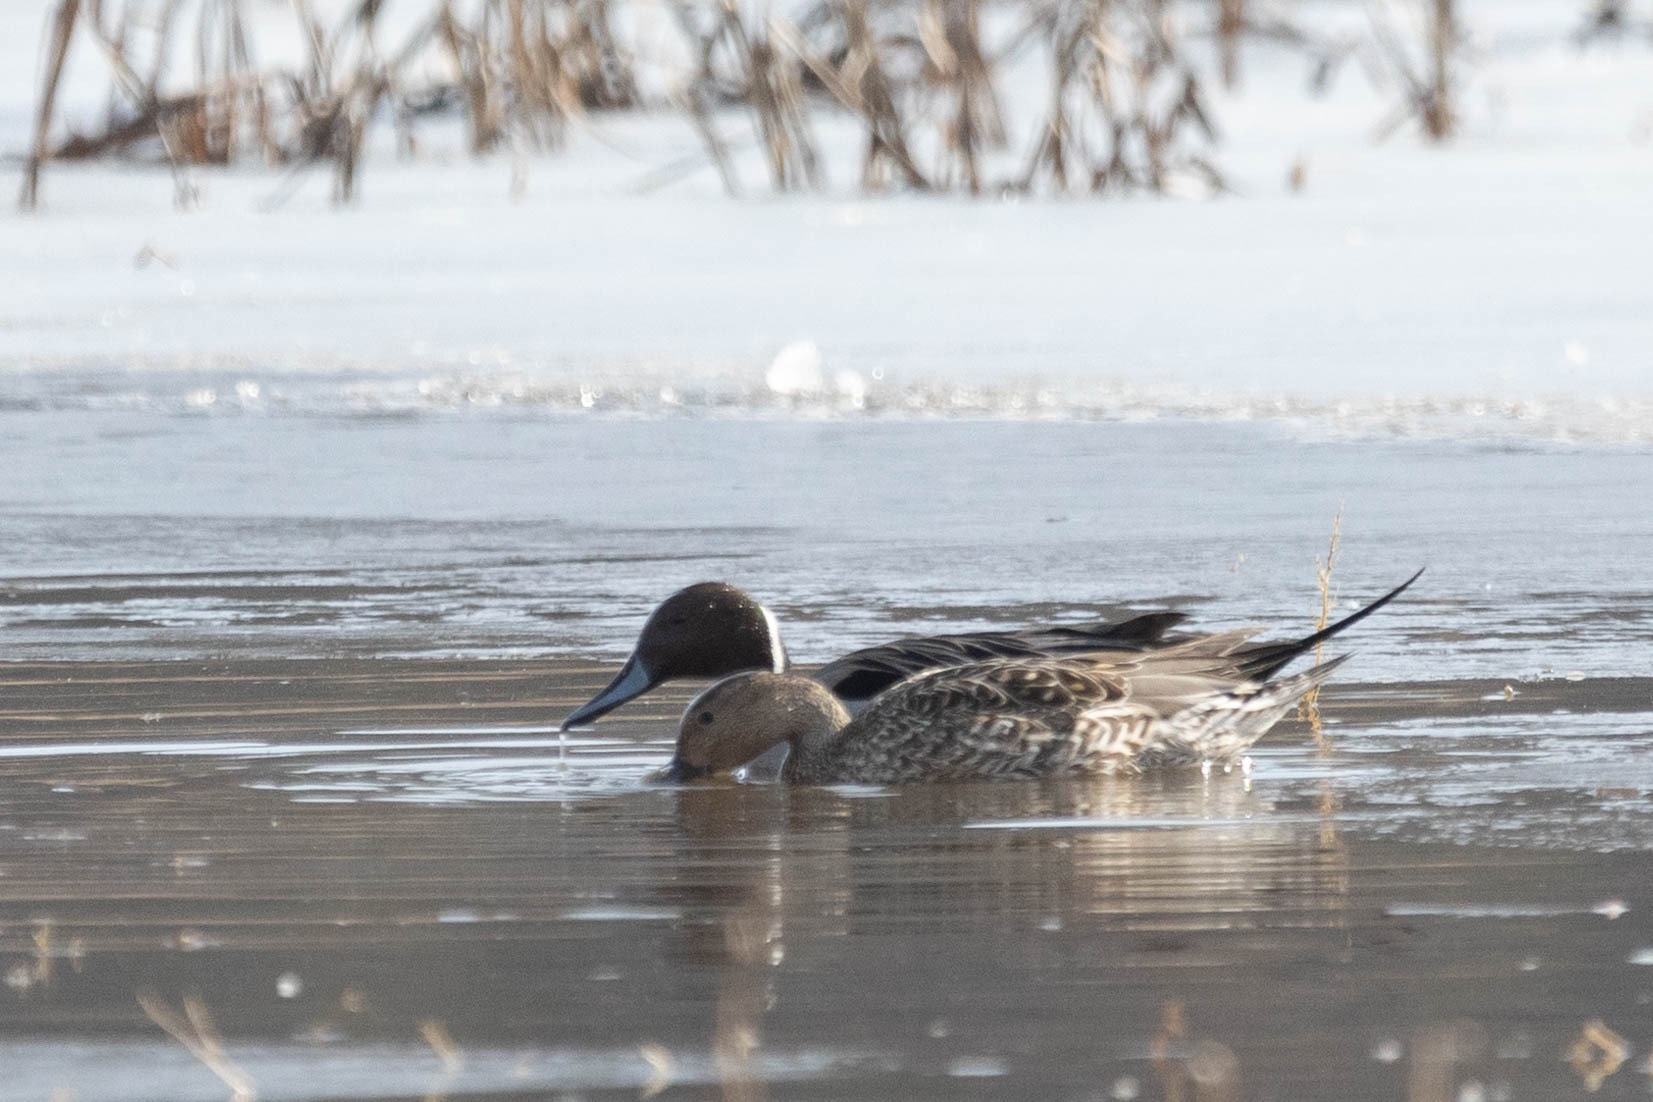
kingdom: Animalia
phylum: Chordata
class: Aves
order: Anseriformes
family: Anatidae
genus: Anas
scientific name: Anas acuta
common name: Northern pintail
